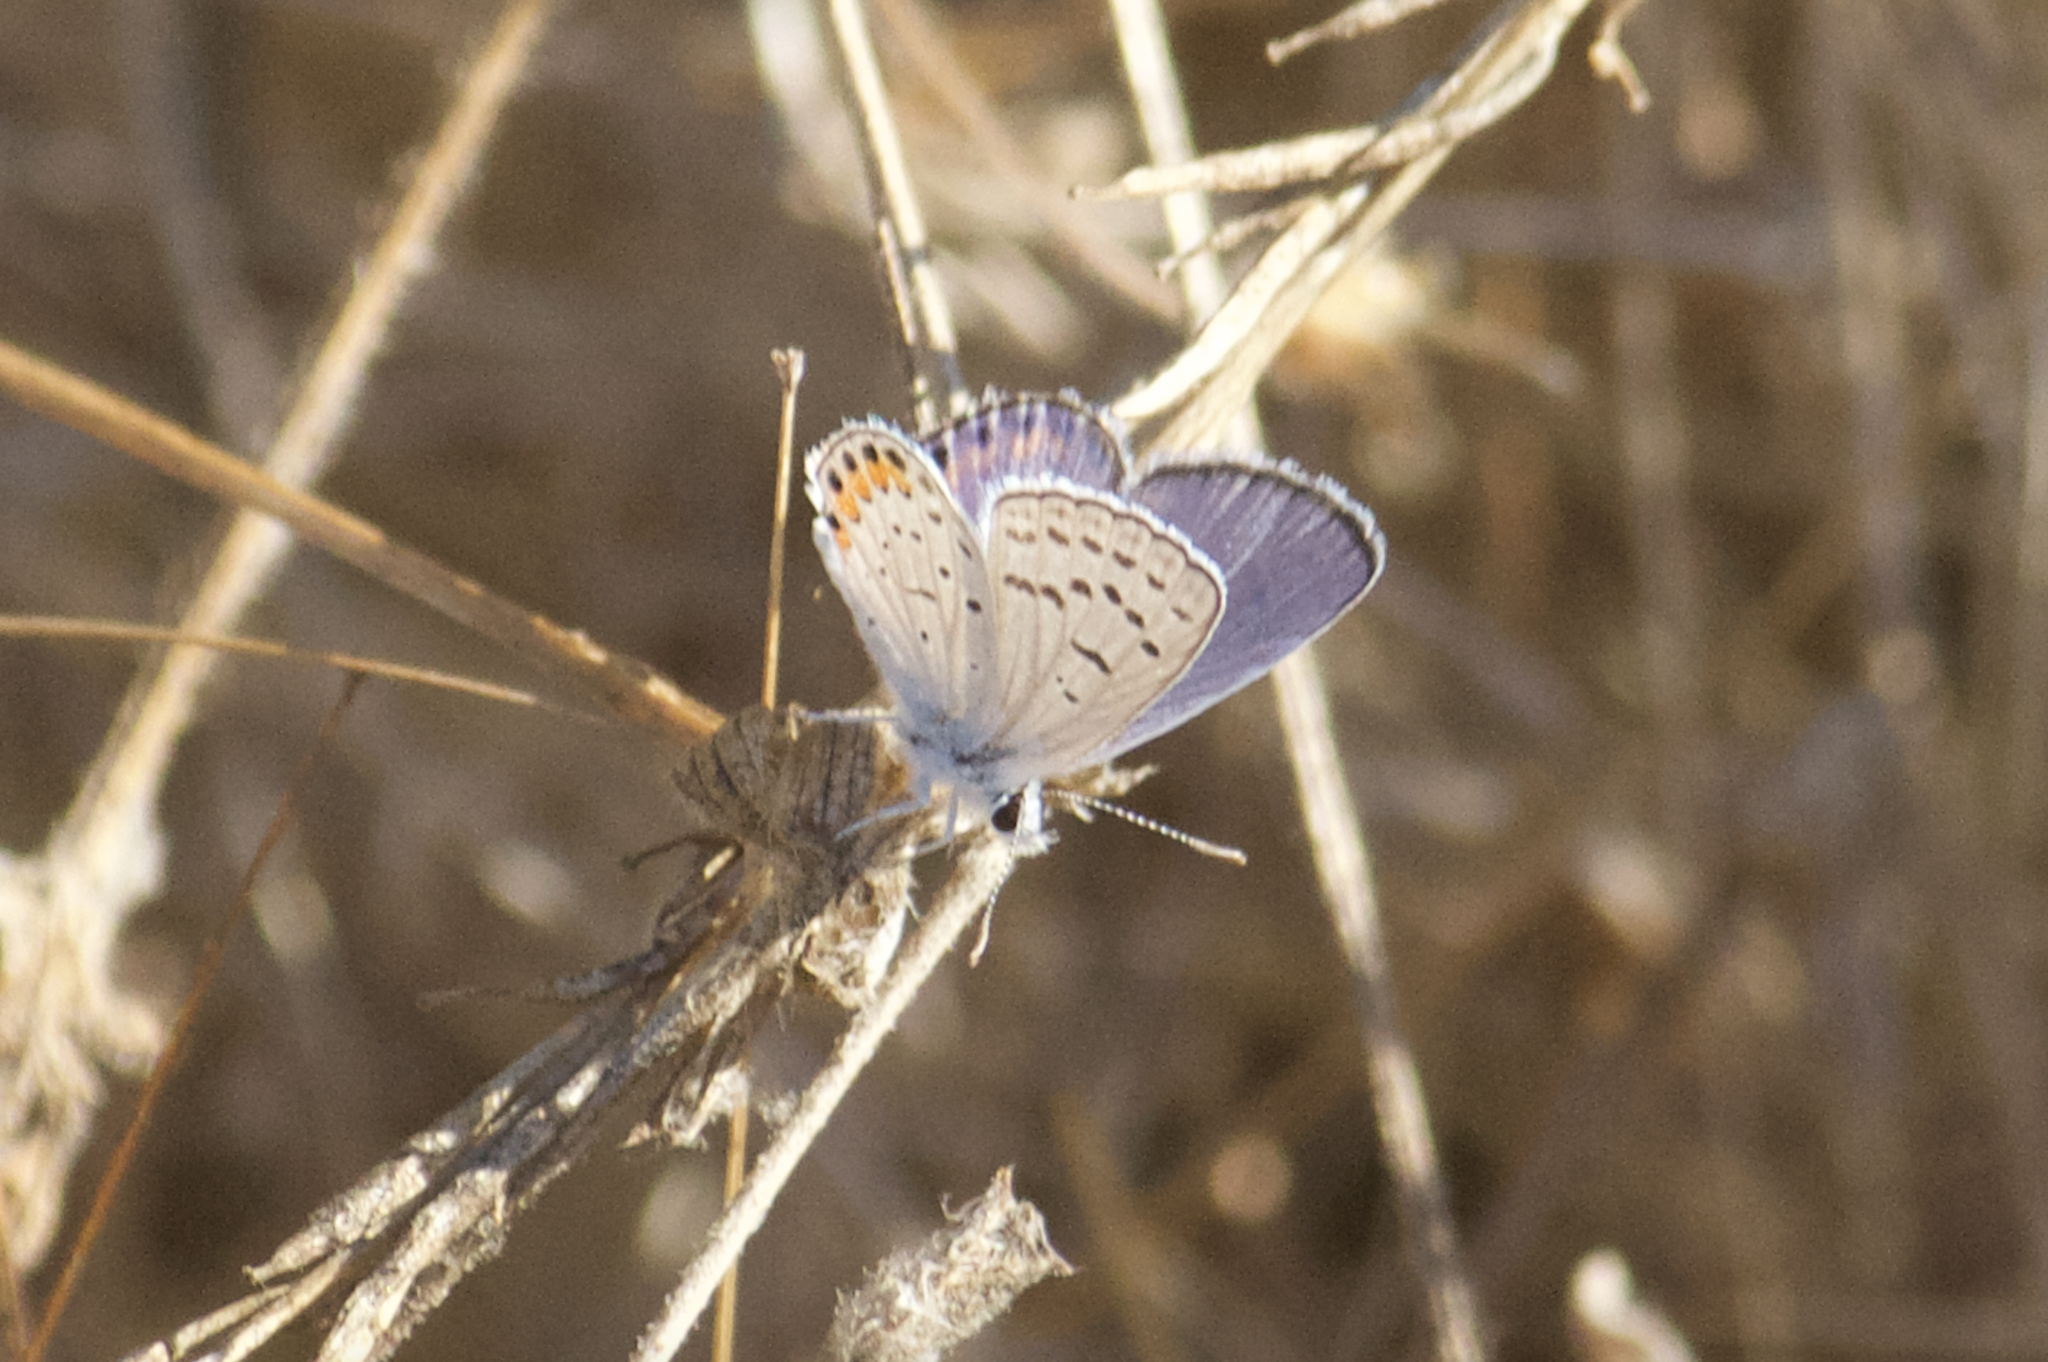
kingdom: Animalia
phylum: Arthropoda
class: Insecta
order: Lepidoptera
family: Lycaenidae
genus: Icaricia
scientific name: Icaricia acmon
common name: Acmon blue
